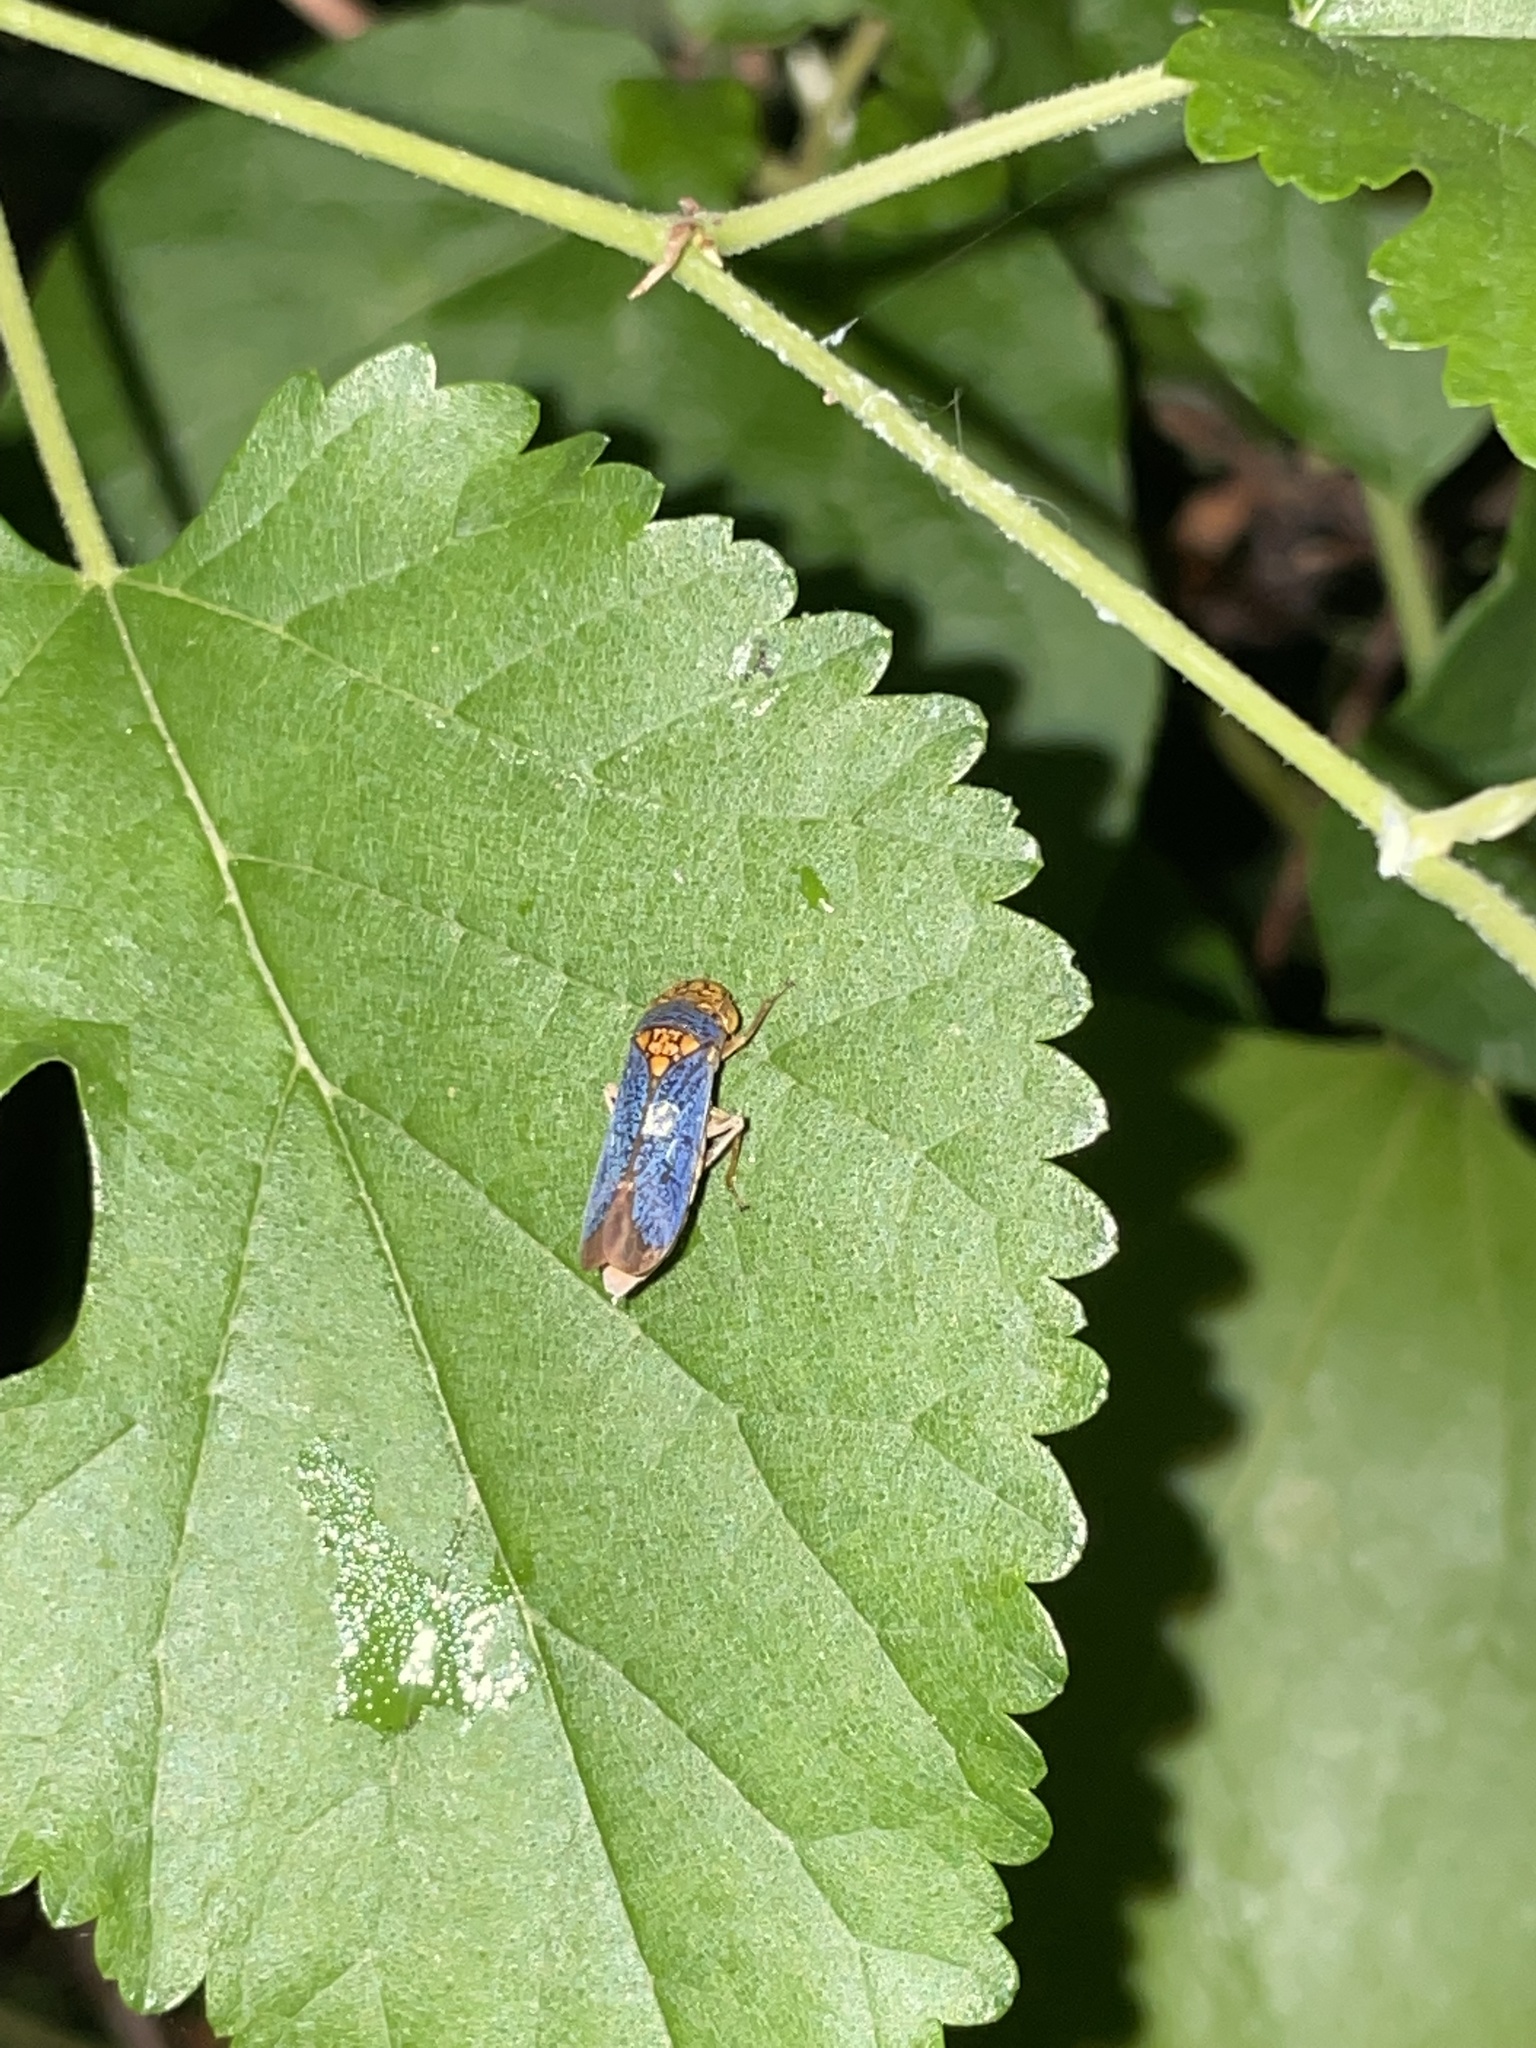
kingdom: Animalia
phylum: Arthropoda
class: Insecta
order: Hemiptera
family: Cicadellidae
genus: Oncometopia
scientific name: Oncometopia orbona
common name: Broad-headed sharpshooter
